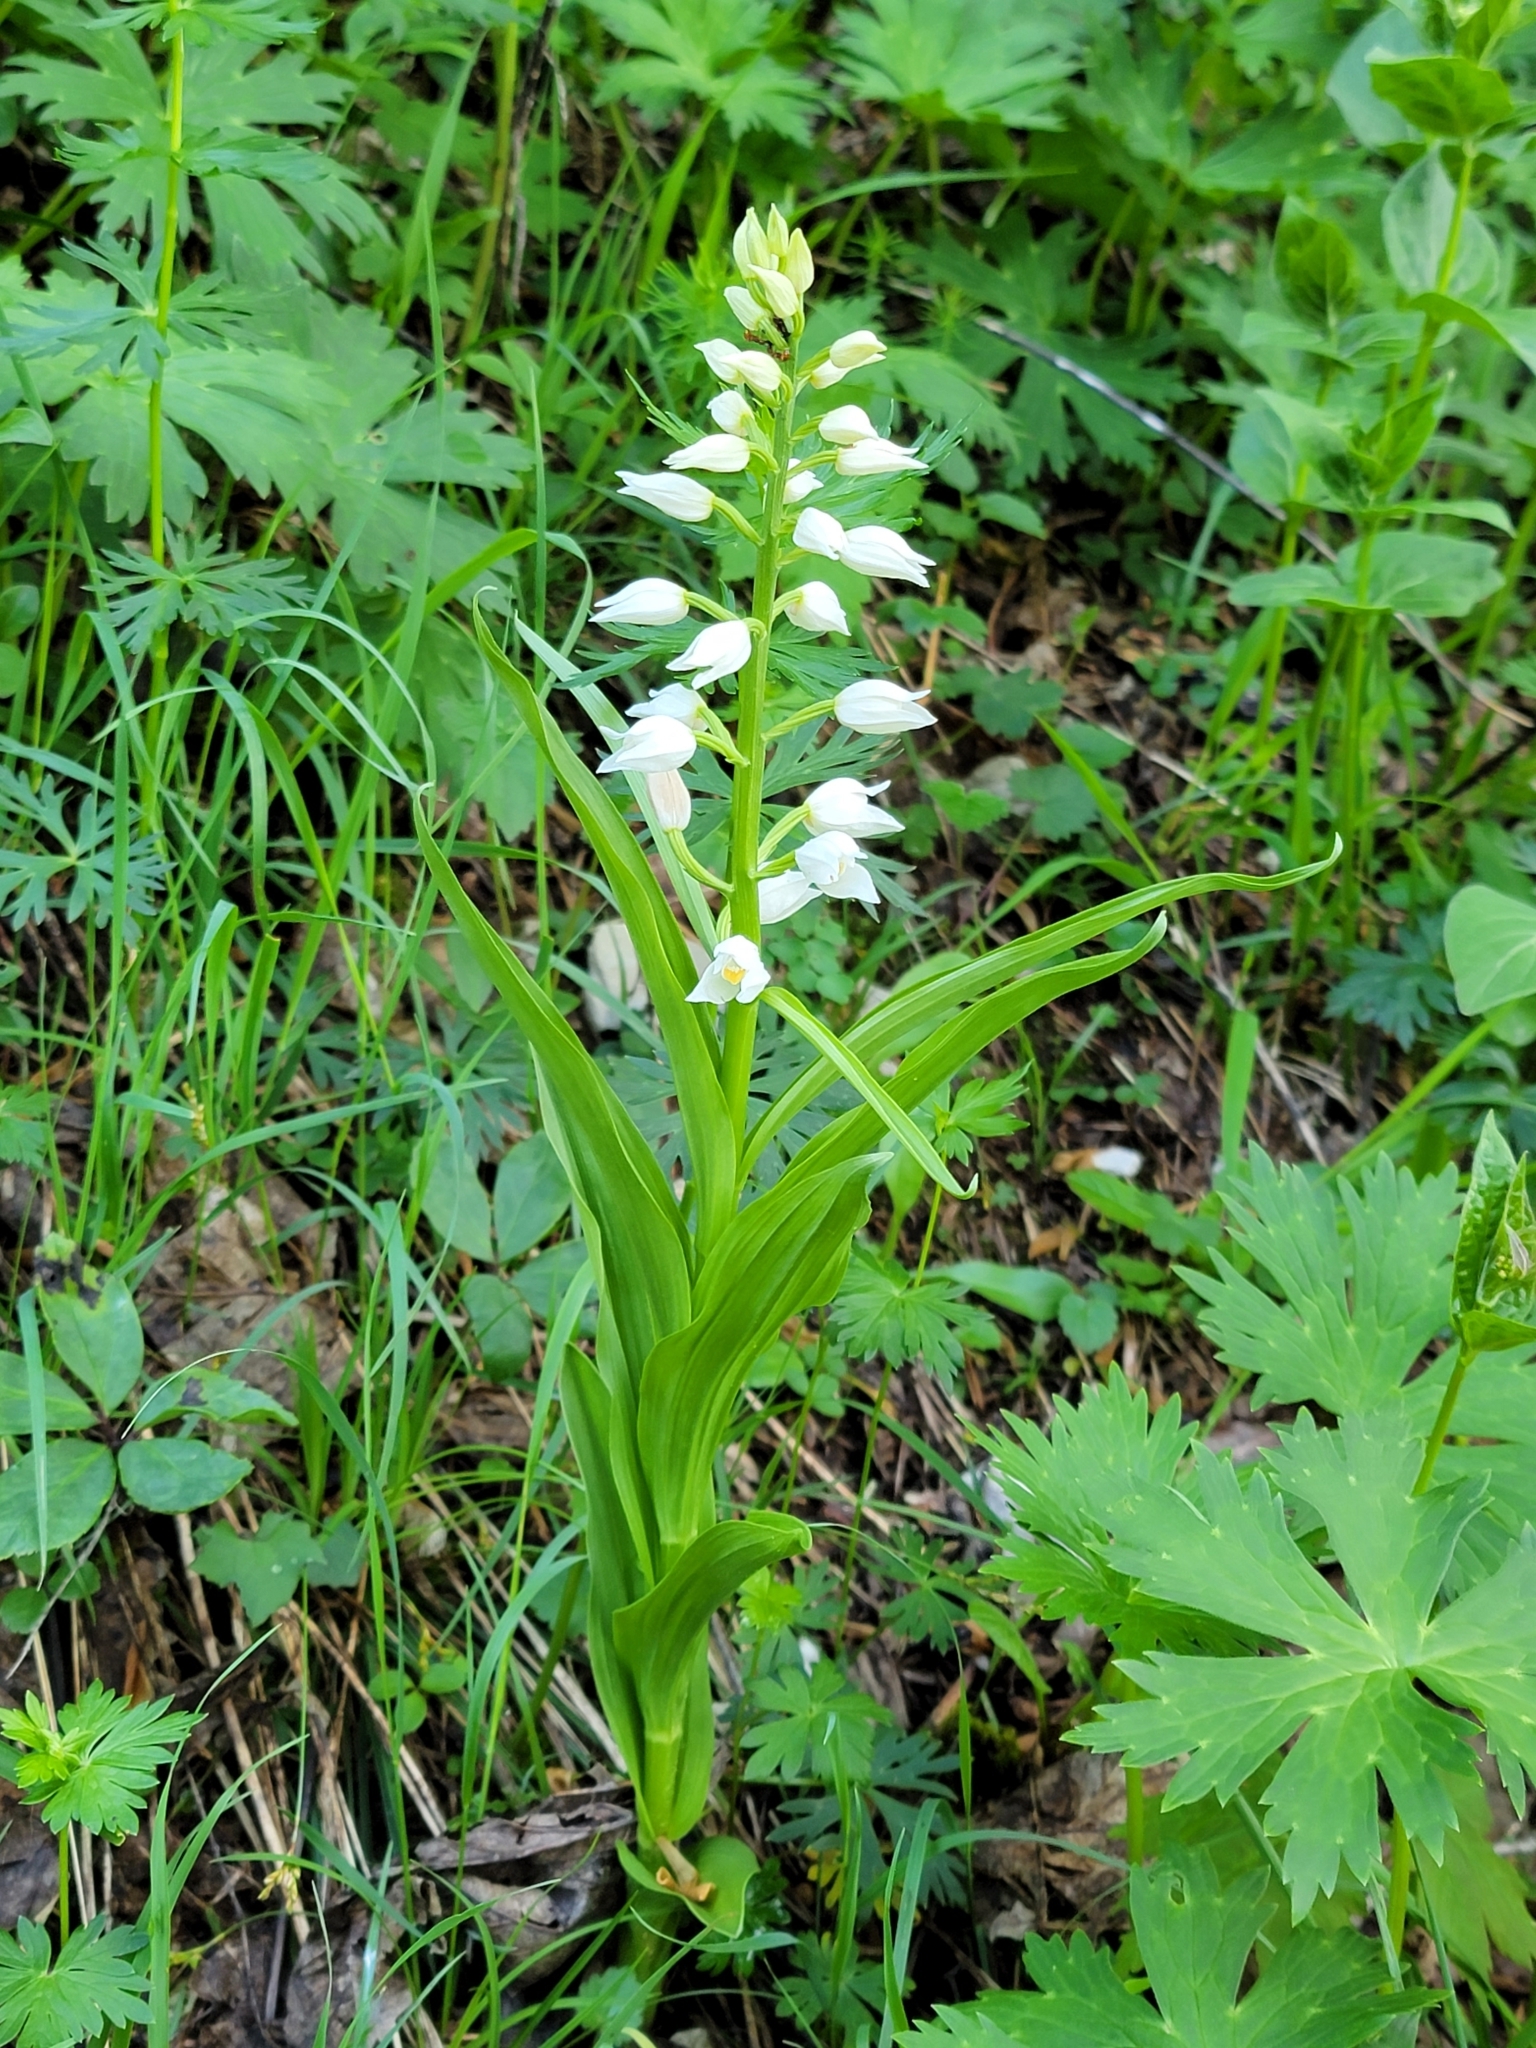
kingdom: Plantae
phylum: Tracheophyta
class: Liliopsida
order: Asparagales
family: Orchidaceae
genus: Cephalanthera
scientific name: Cephalanthera longifolia
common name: Narrow-leaved helleborine
